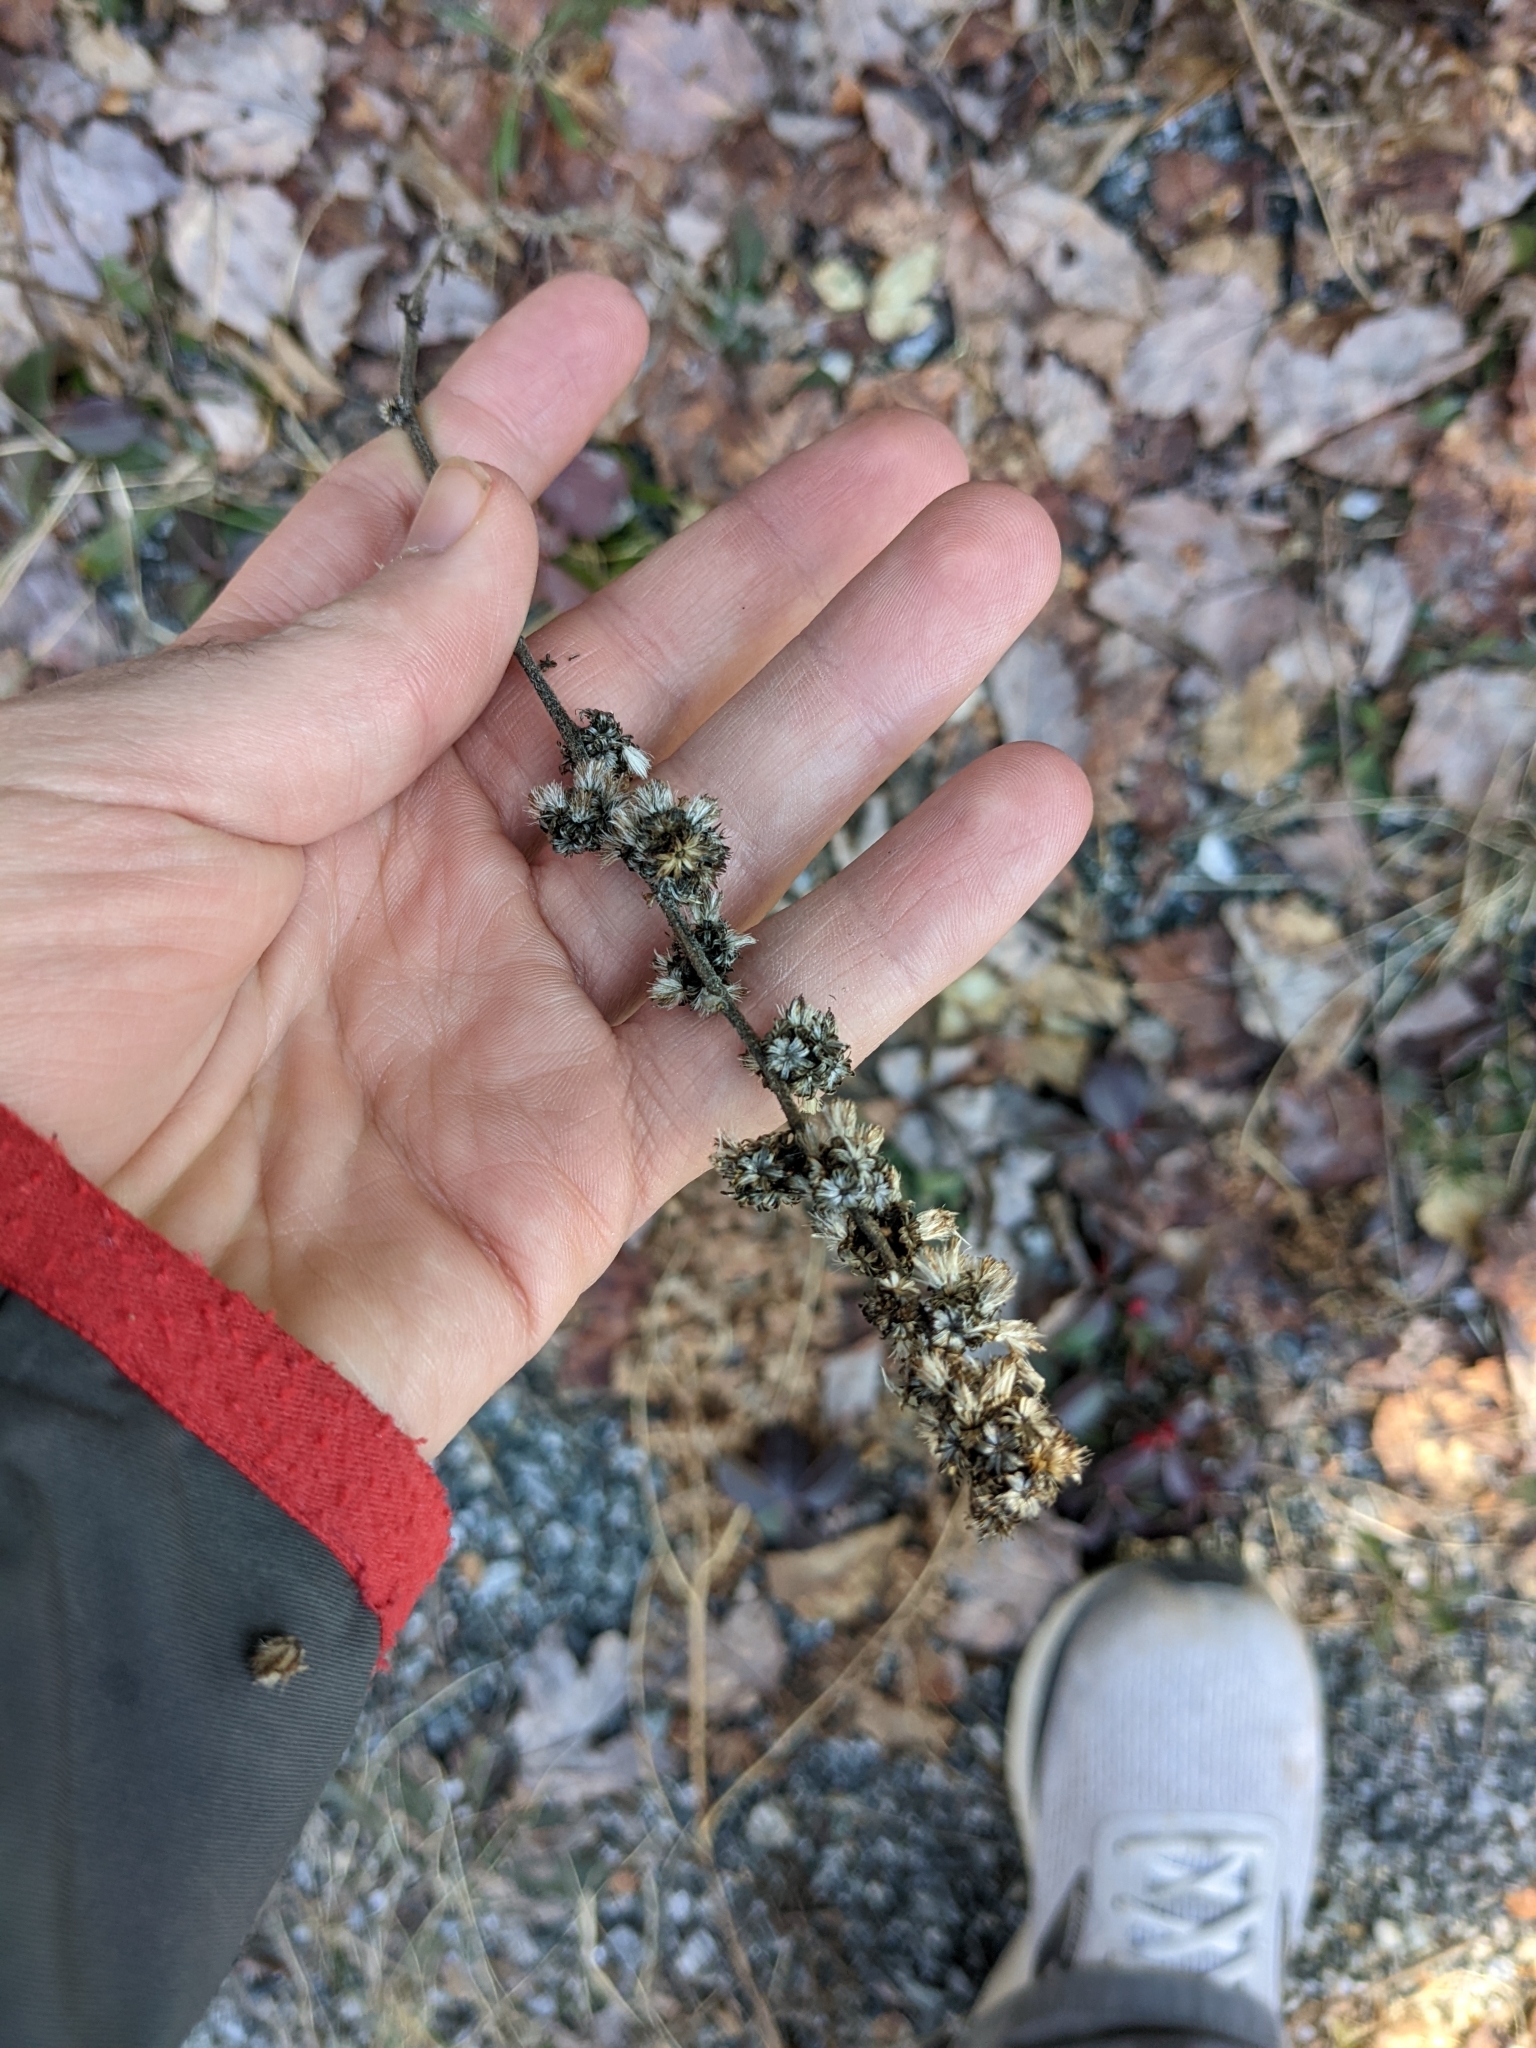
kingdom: Plantae
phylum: Tracheophyta
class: Magnoliopsida
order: Asterales
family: Asteraceae
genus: Solidago
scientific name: Solidago bicolor
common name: Silverrod
